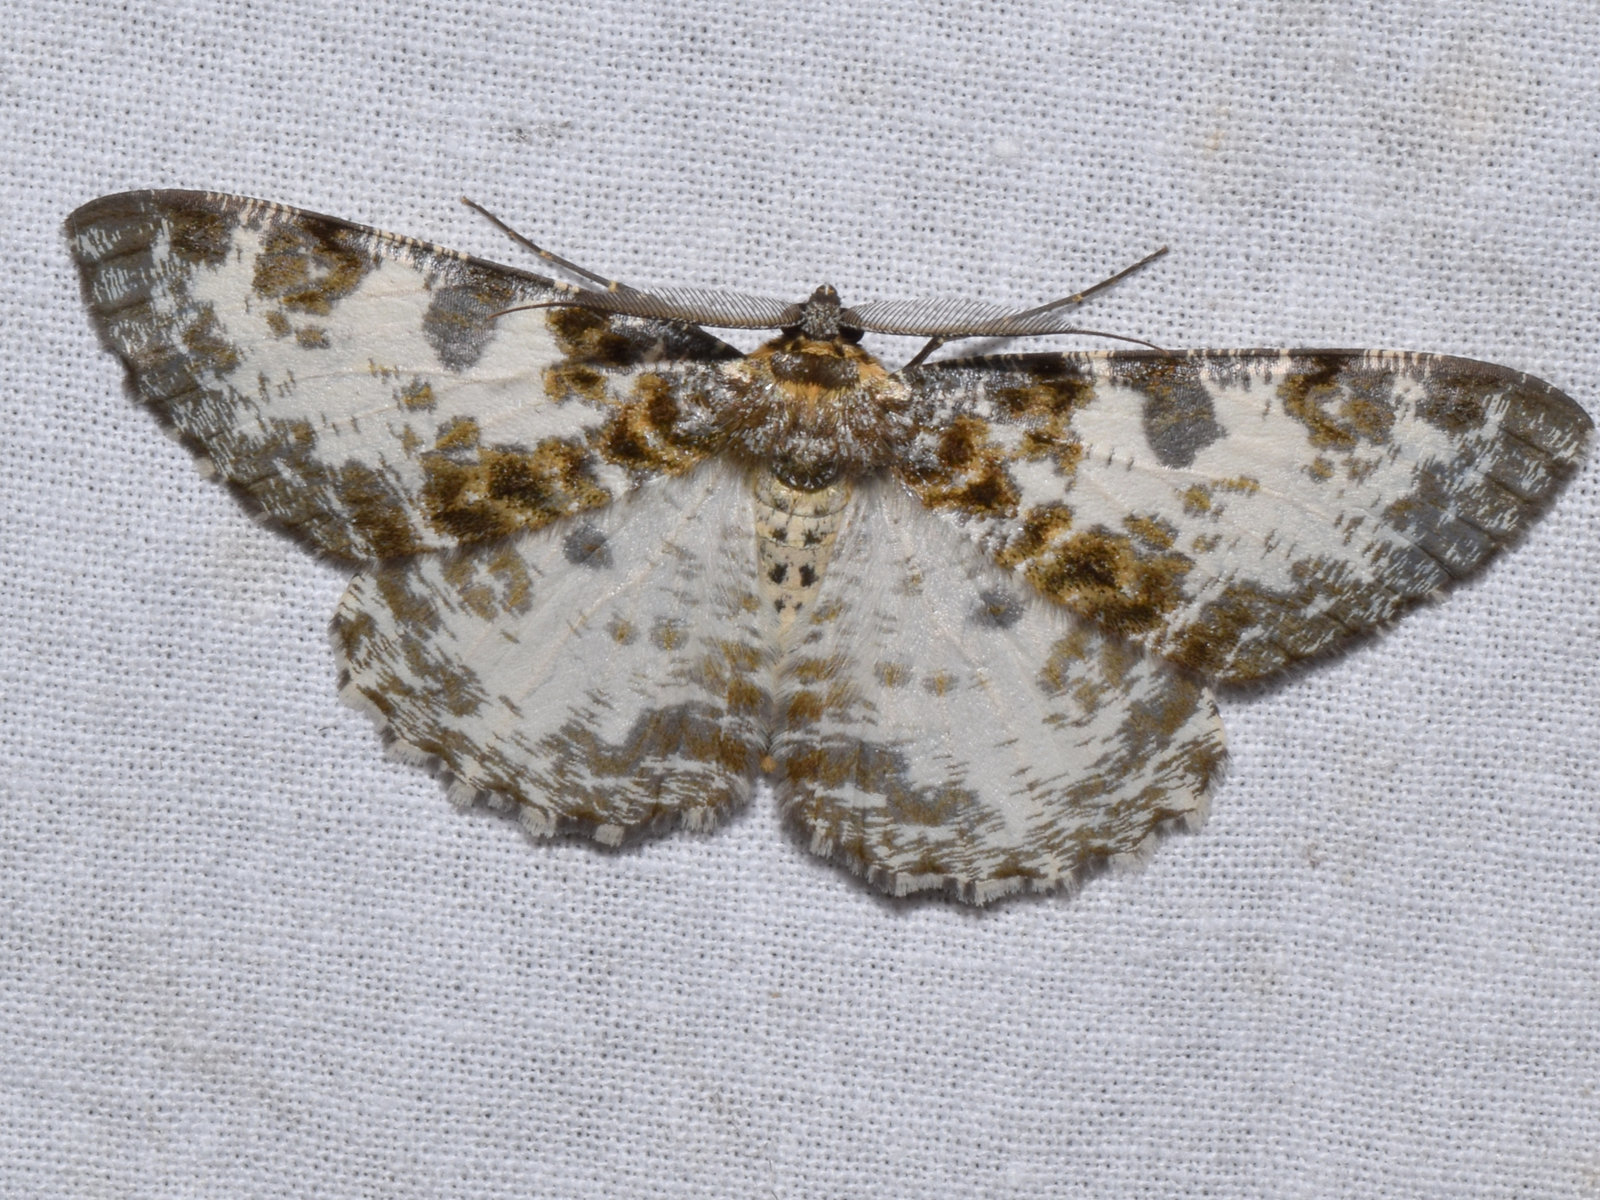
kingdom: Animalia
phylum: Arthropoda
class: Insecta
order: Lepidoptera
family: Geometridae
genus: Hypomecis
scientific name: Hypomecis pardaria
